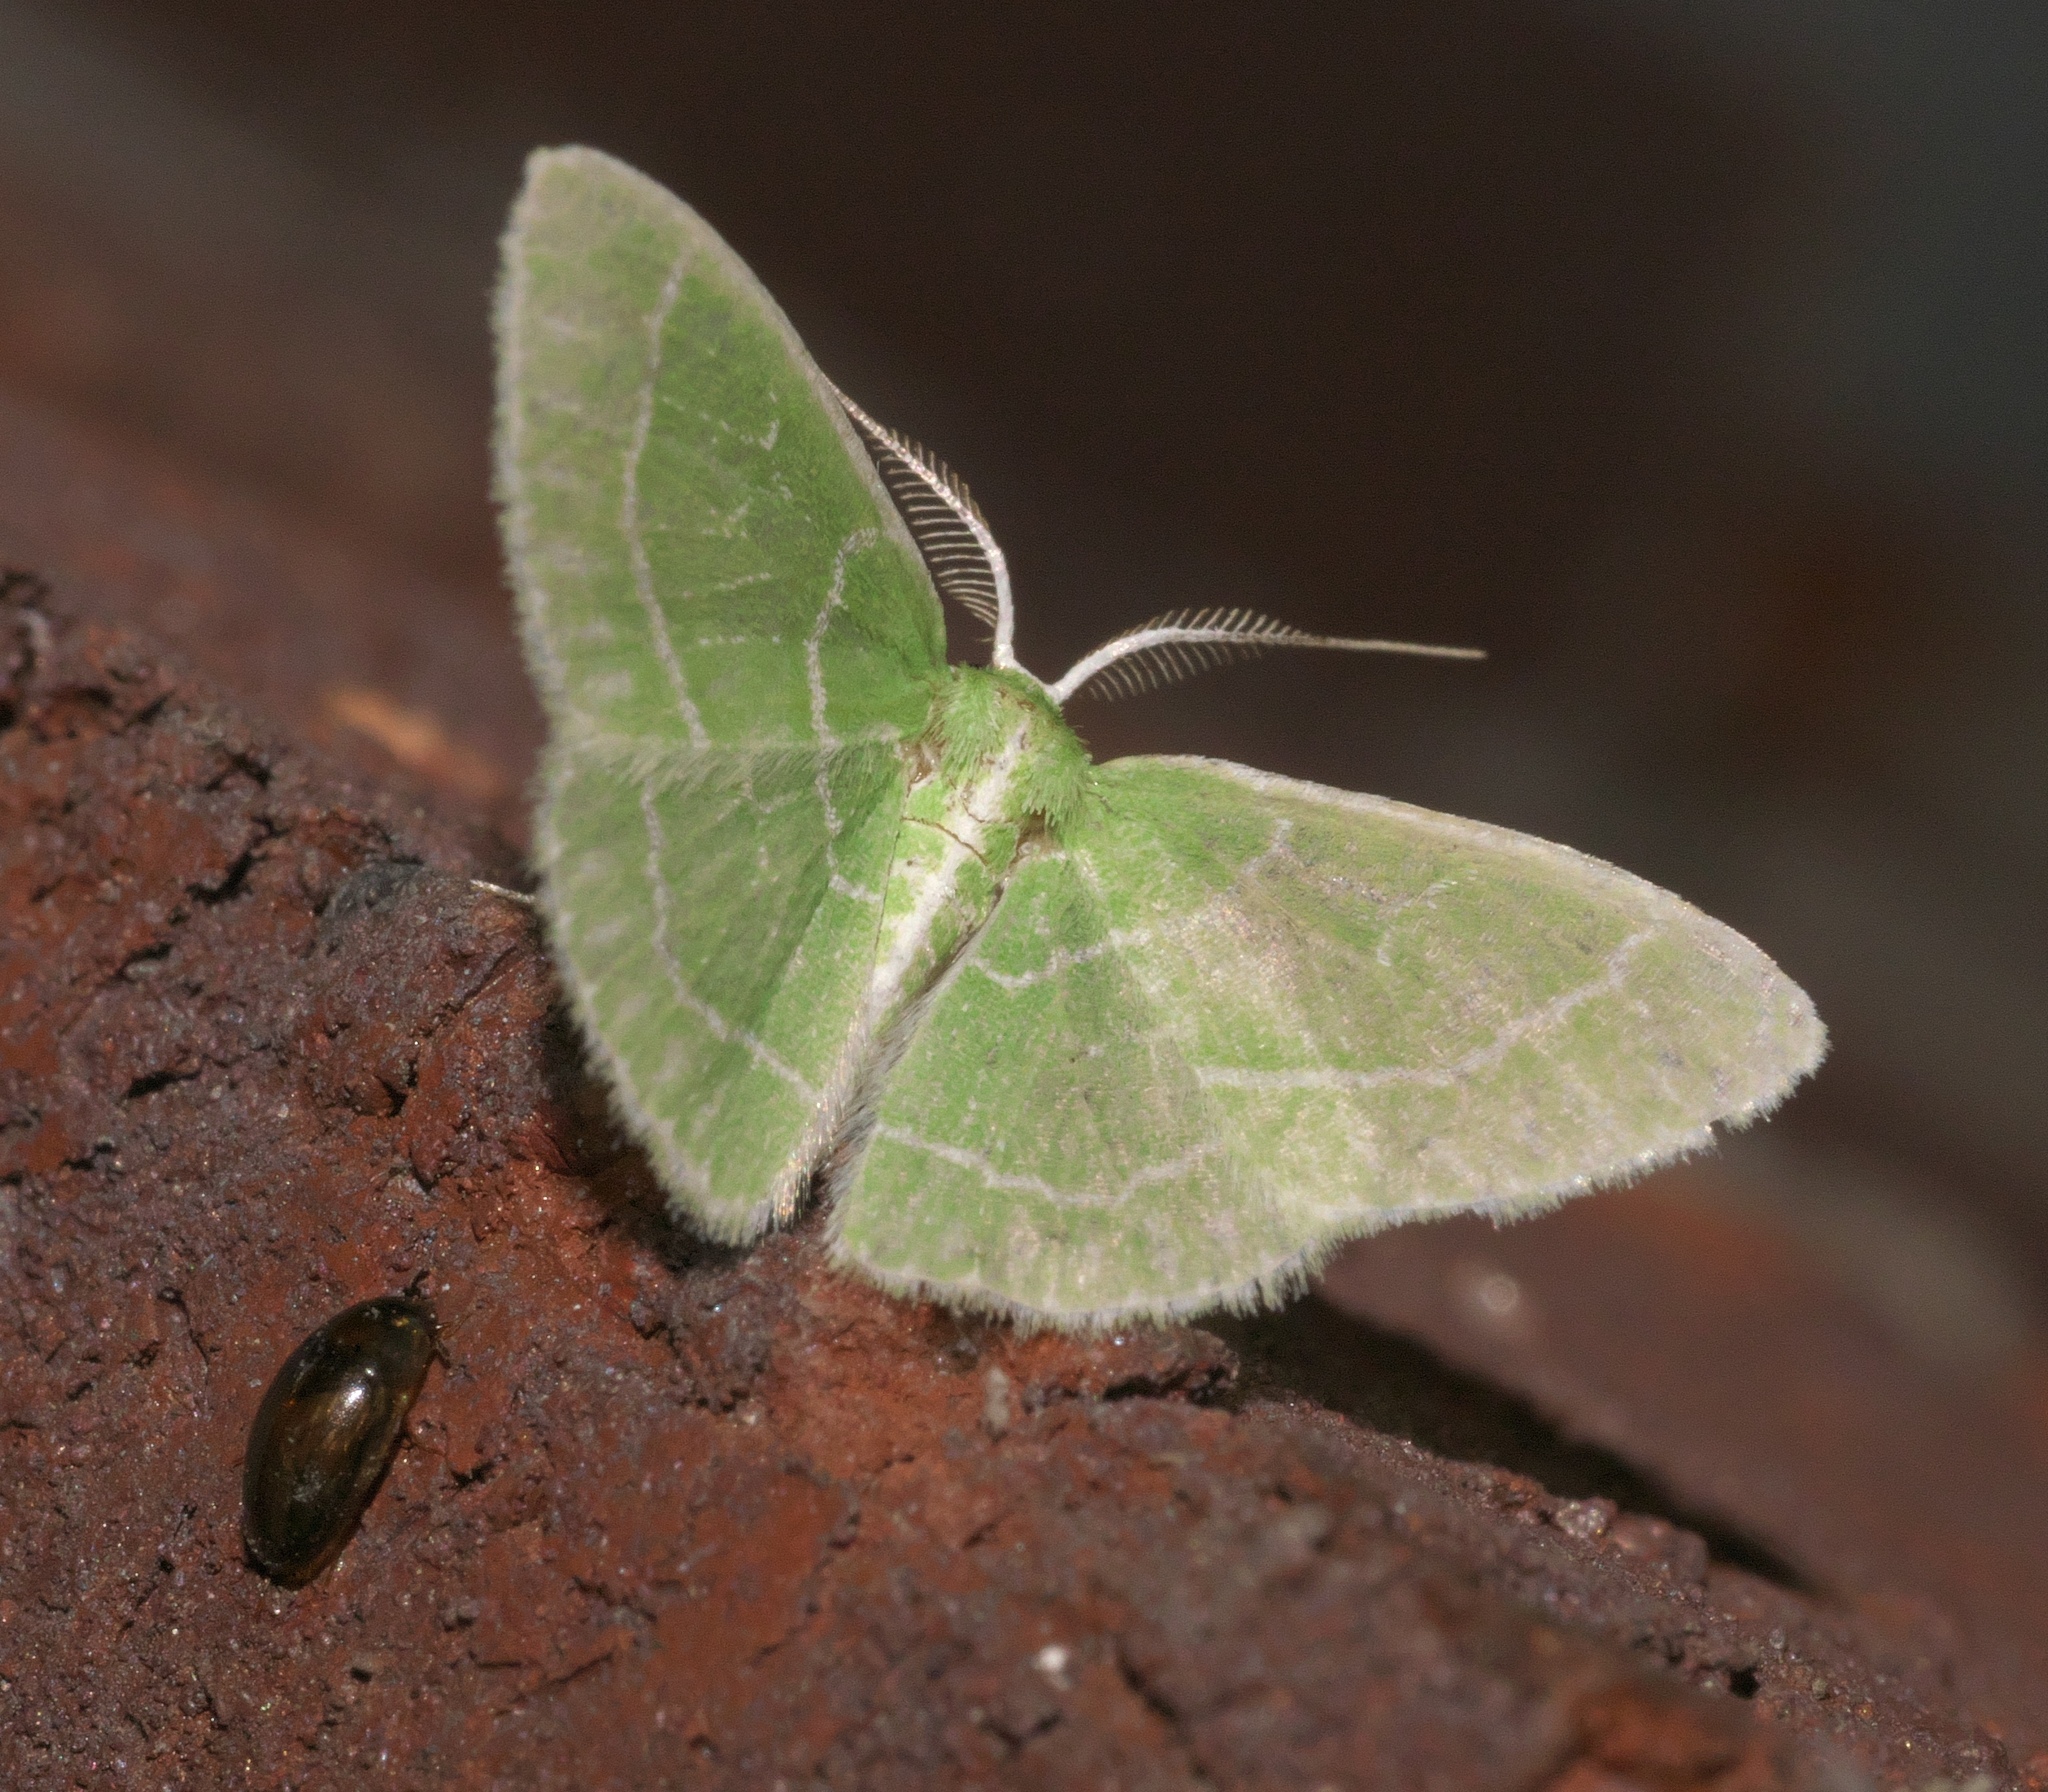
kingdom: Animalia
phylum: Arthropoda
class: Insecta
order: Lepidoptera
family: Geometridae
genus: Synchlora
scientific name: Synchlora aerata
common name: Wavy-lined emerald
